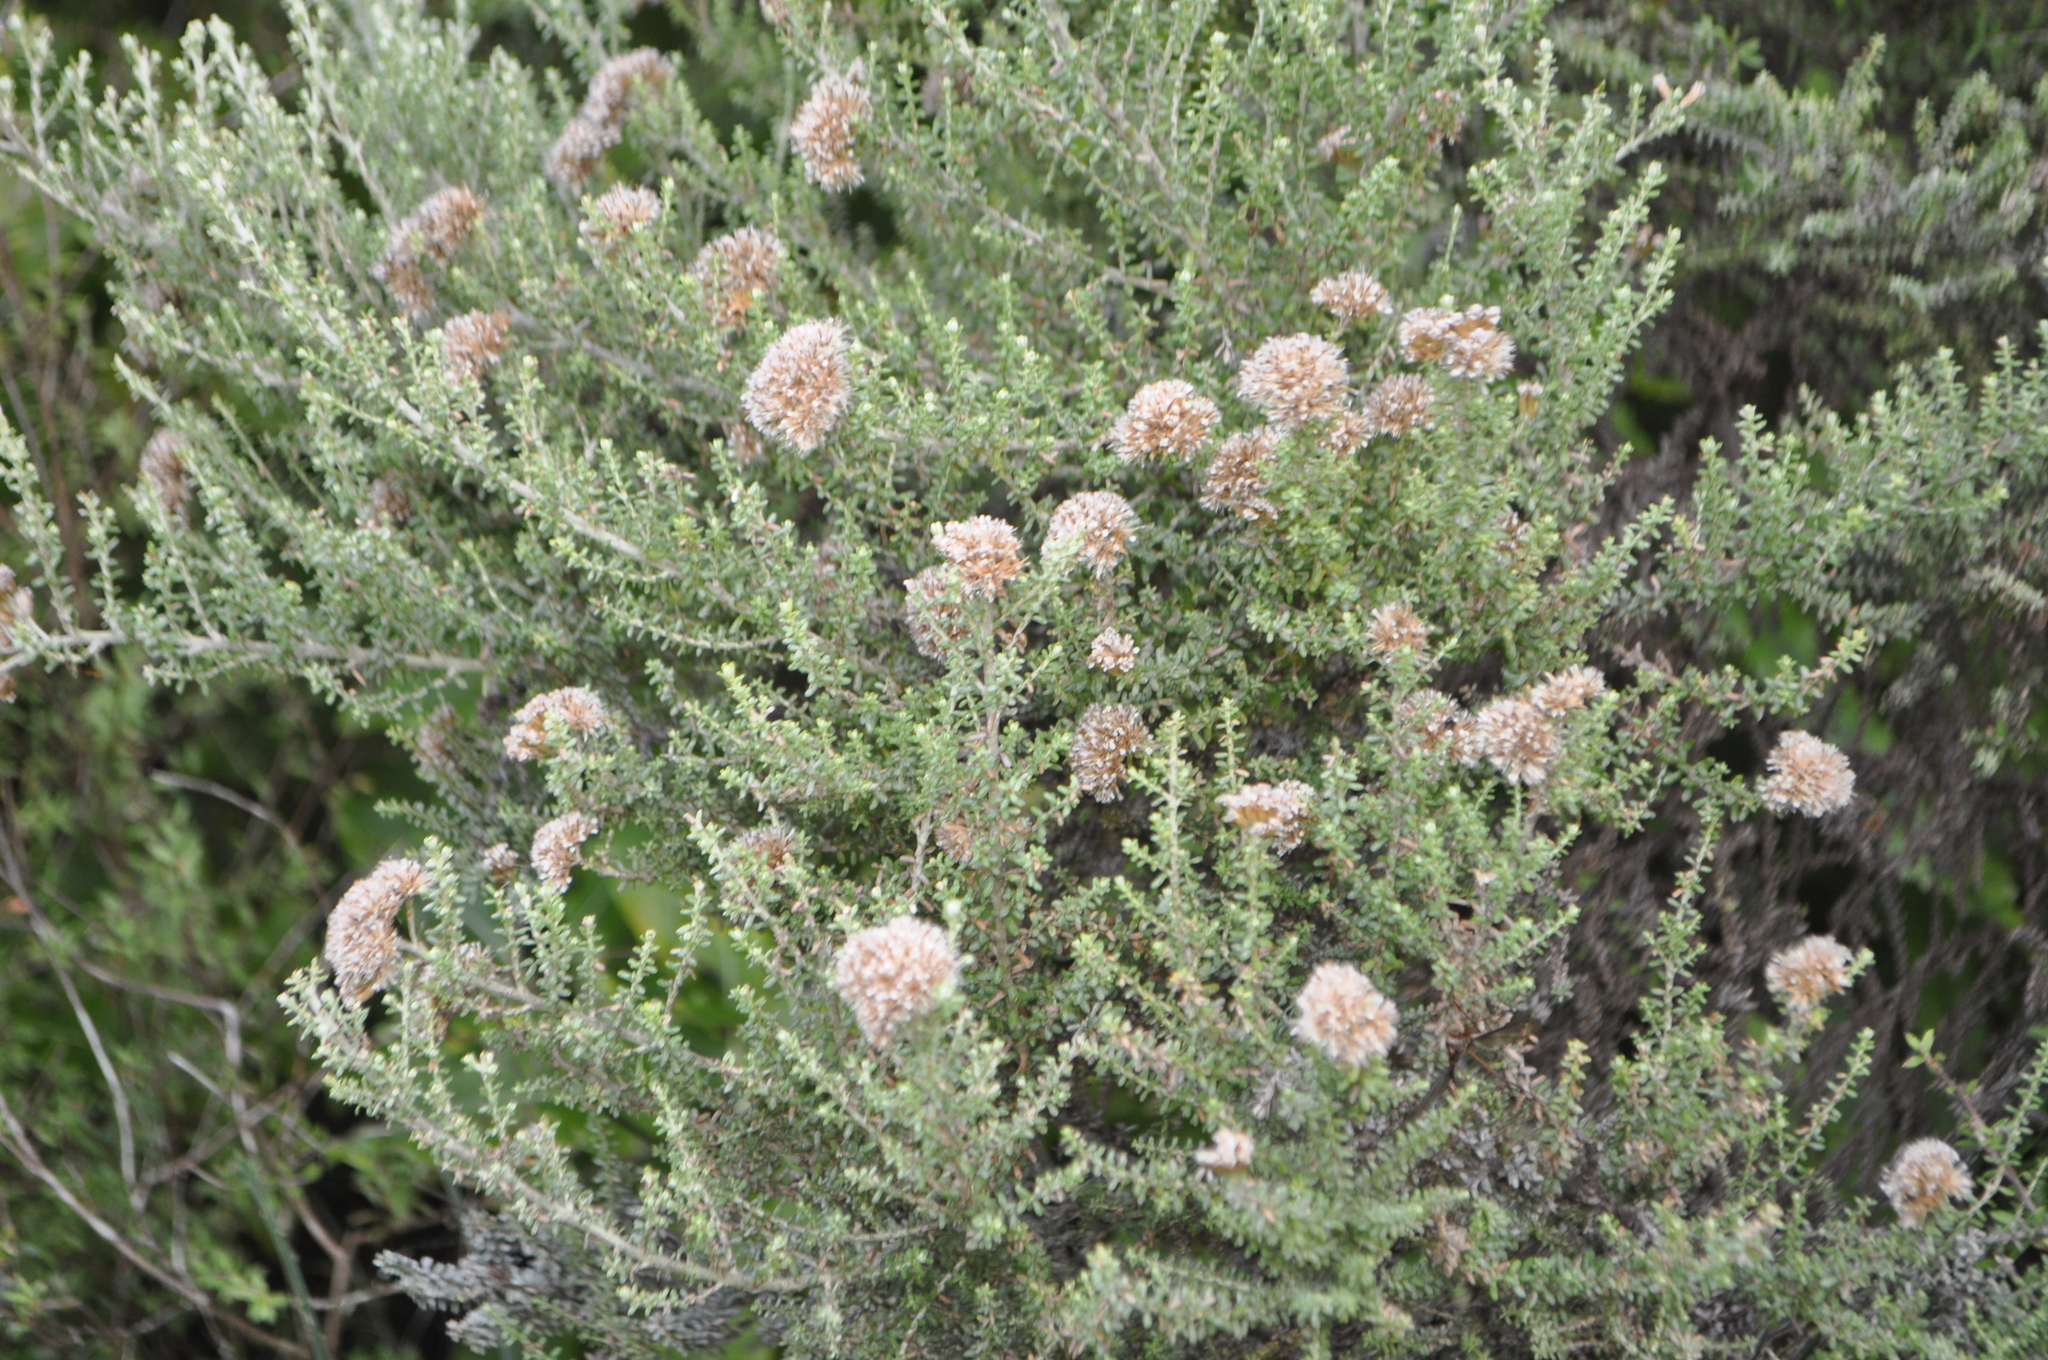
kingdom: Plantae
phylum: Tracheophyta
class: Magnoliopsida
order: Asterales
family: Asteraceae
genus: Ozothamnus
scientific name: Ozothamnus leptophyllus
